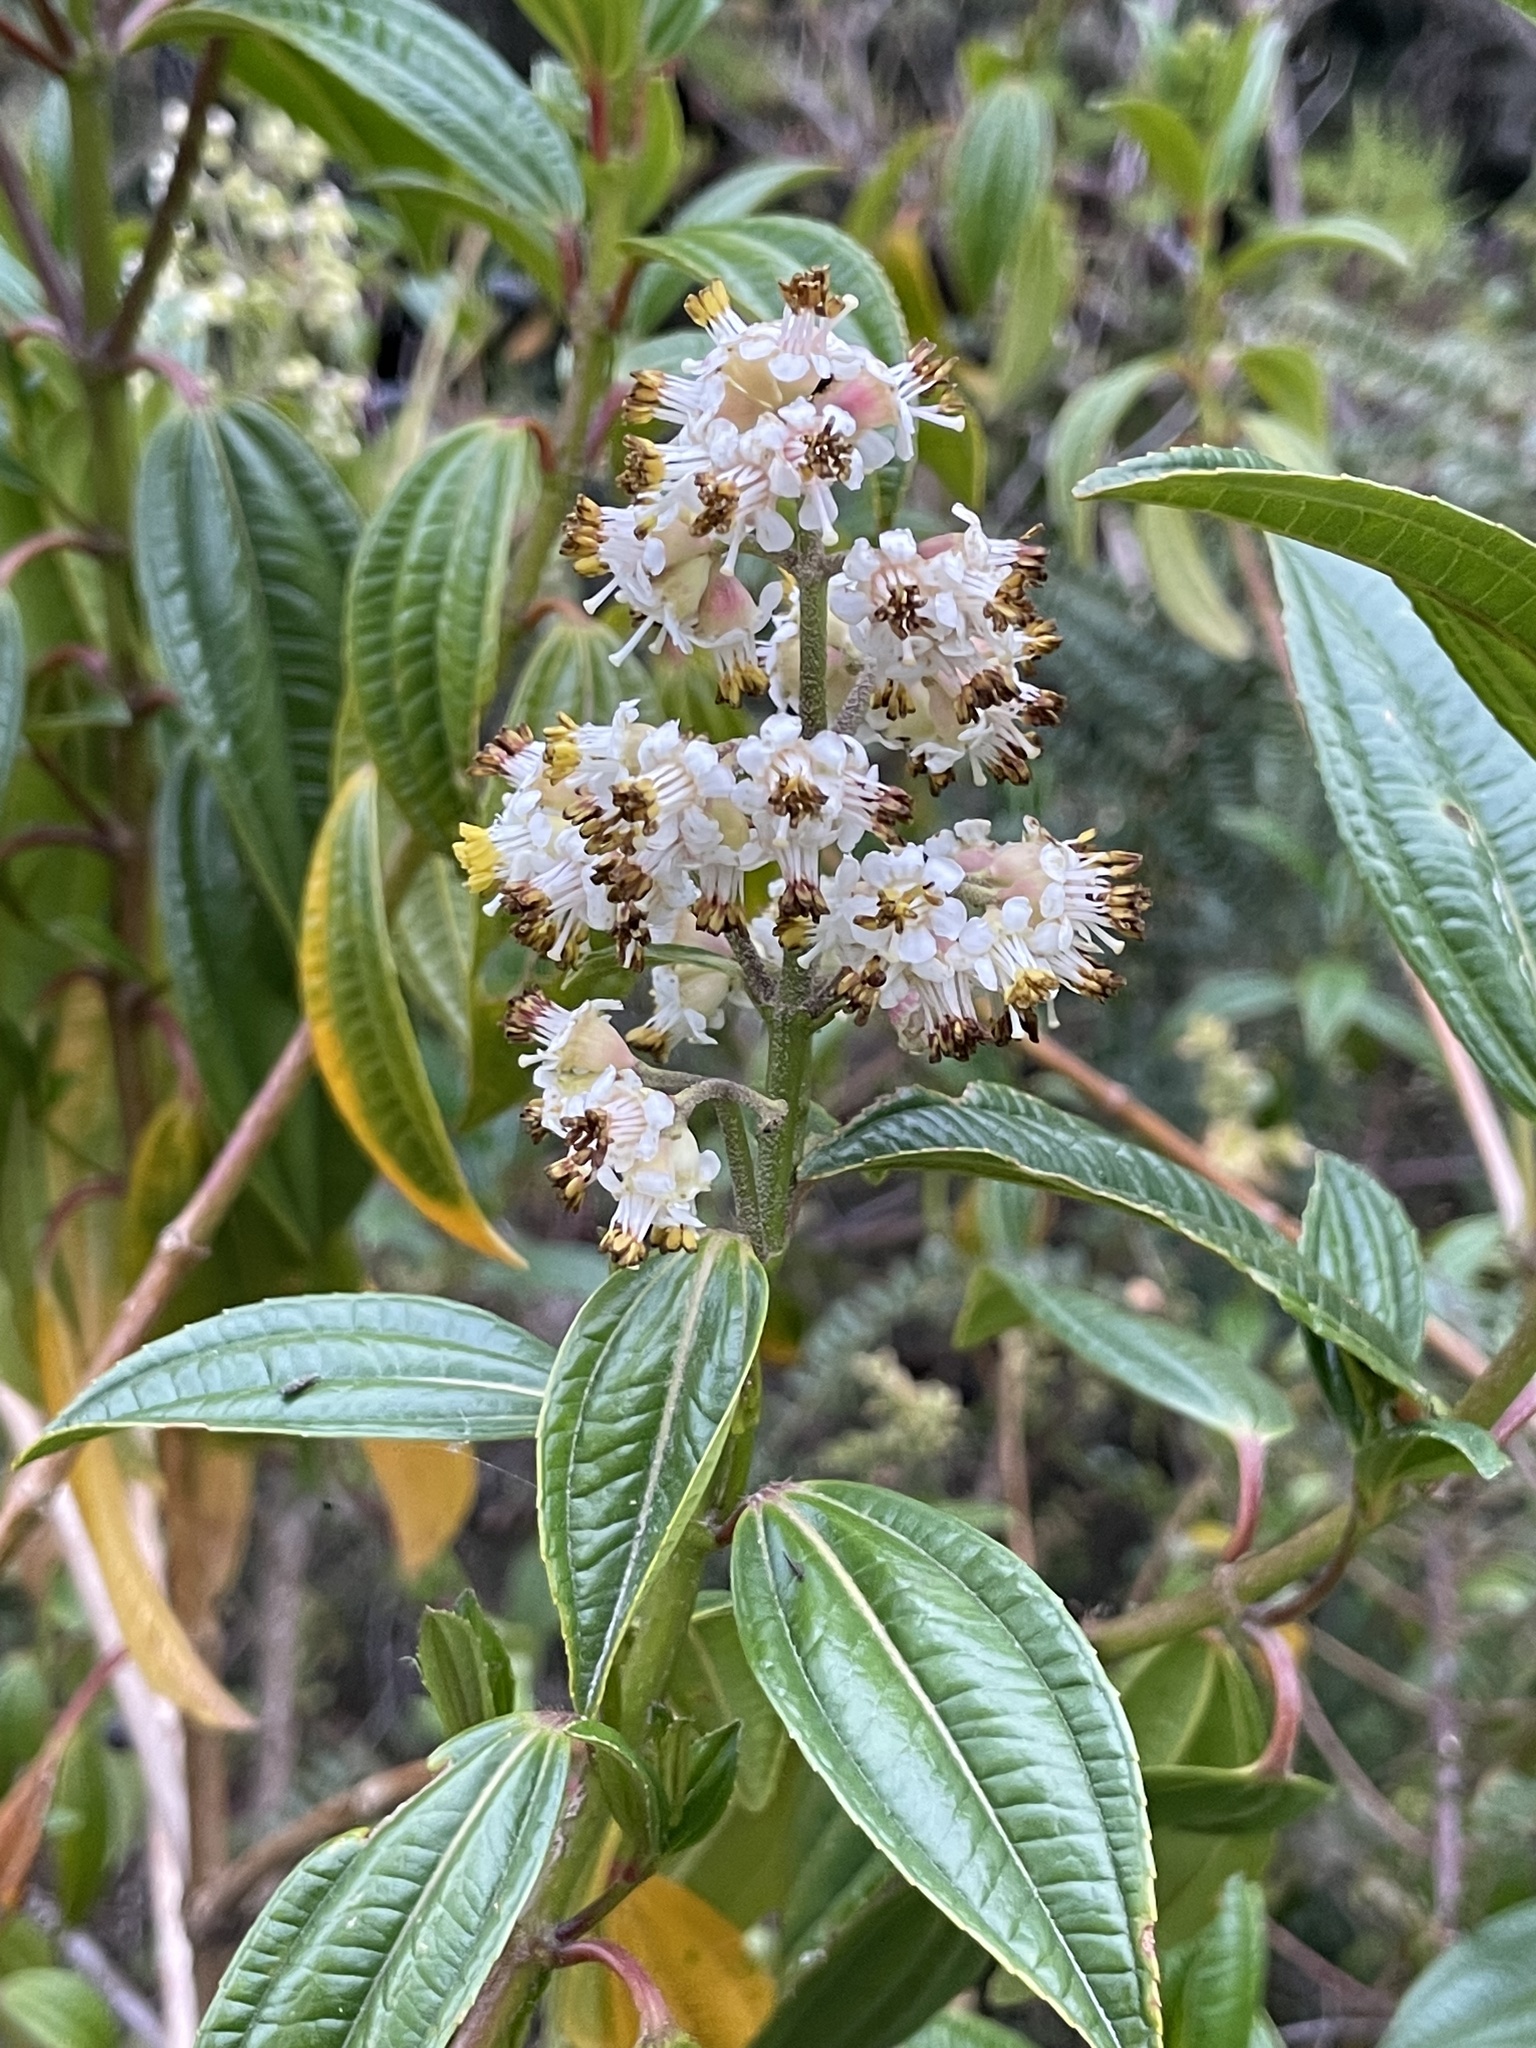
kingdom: Plantae
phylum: Tracheophyta
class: Magnoliopsida
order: Myrtales
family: Melastomataceae
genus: Miconia
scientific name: Miconia crocea
